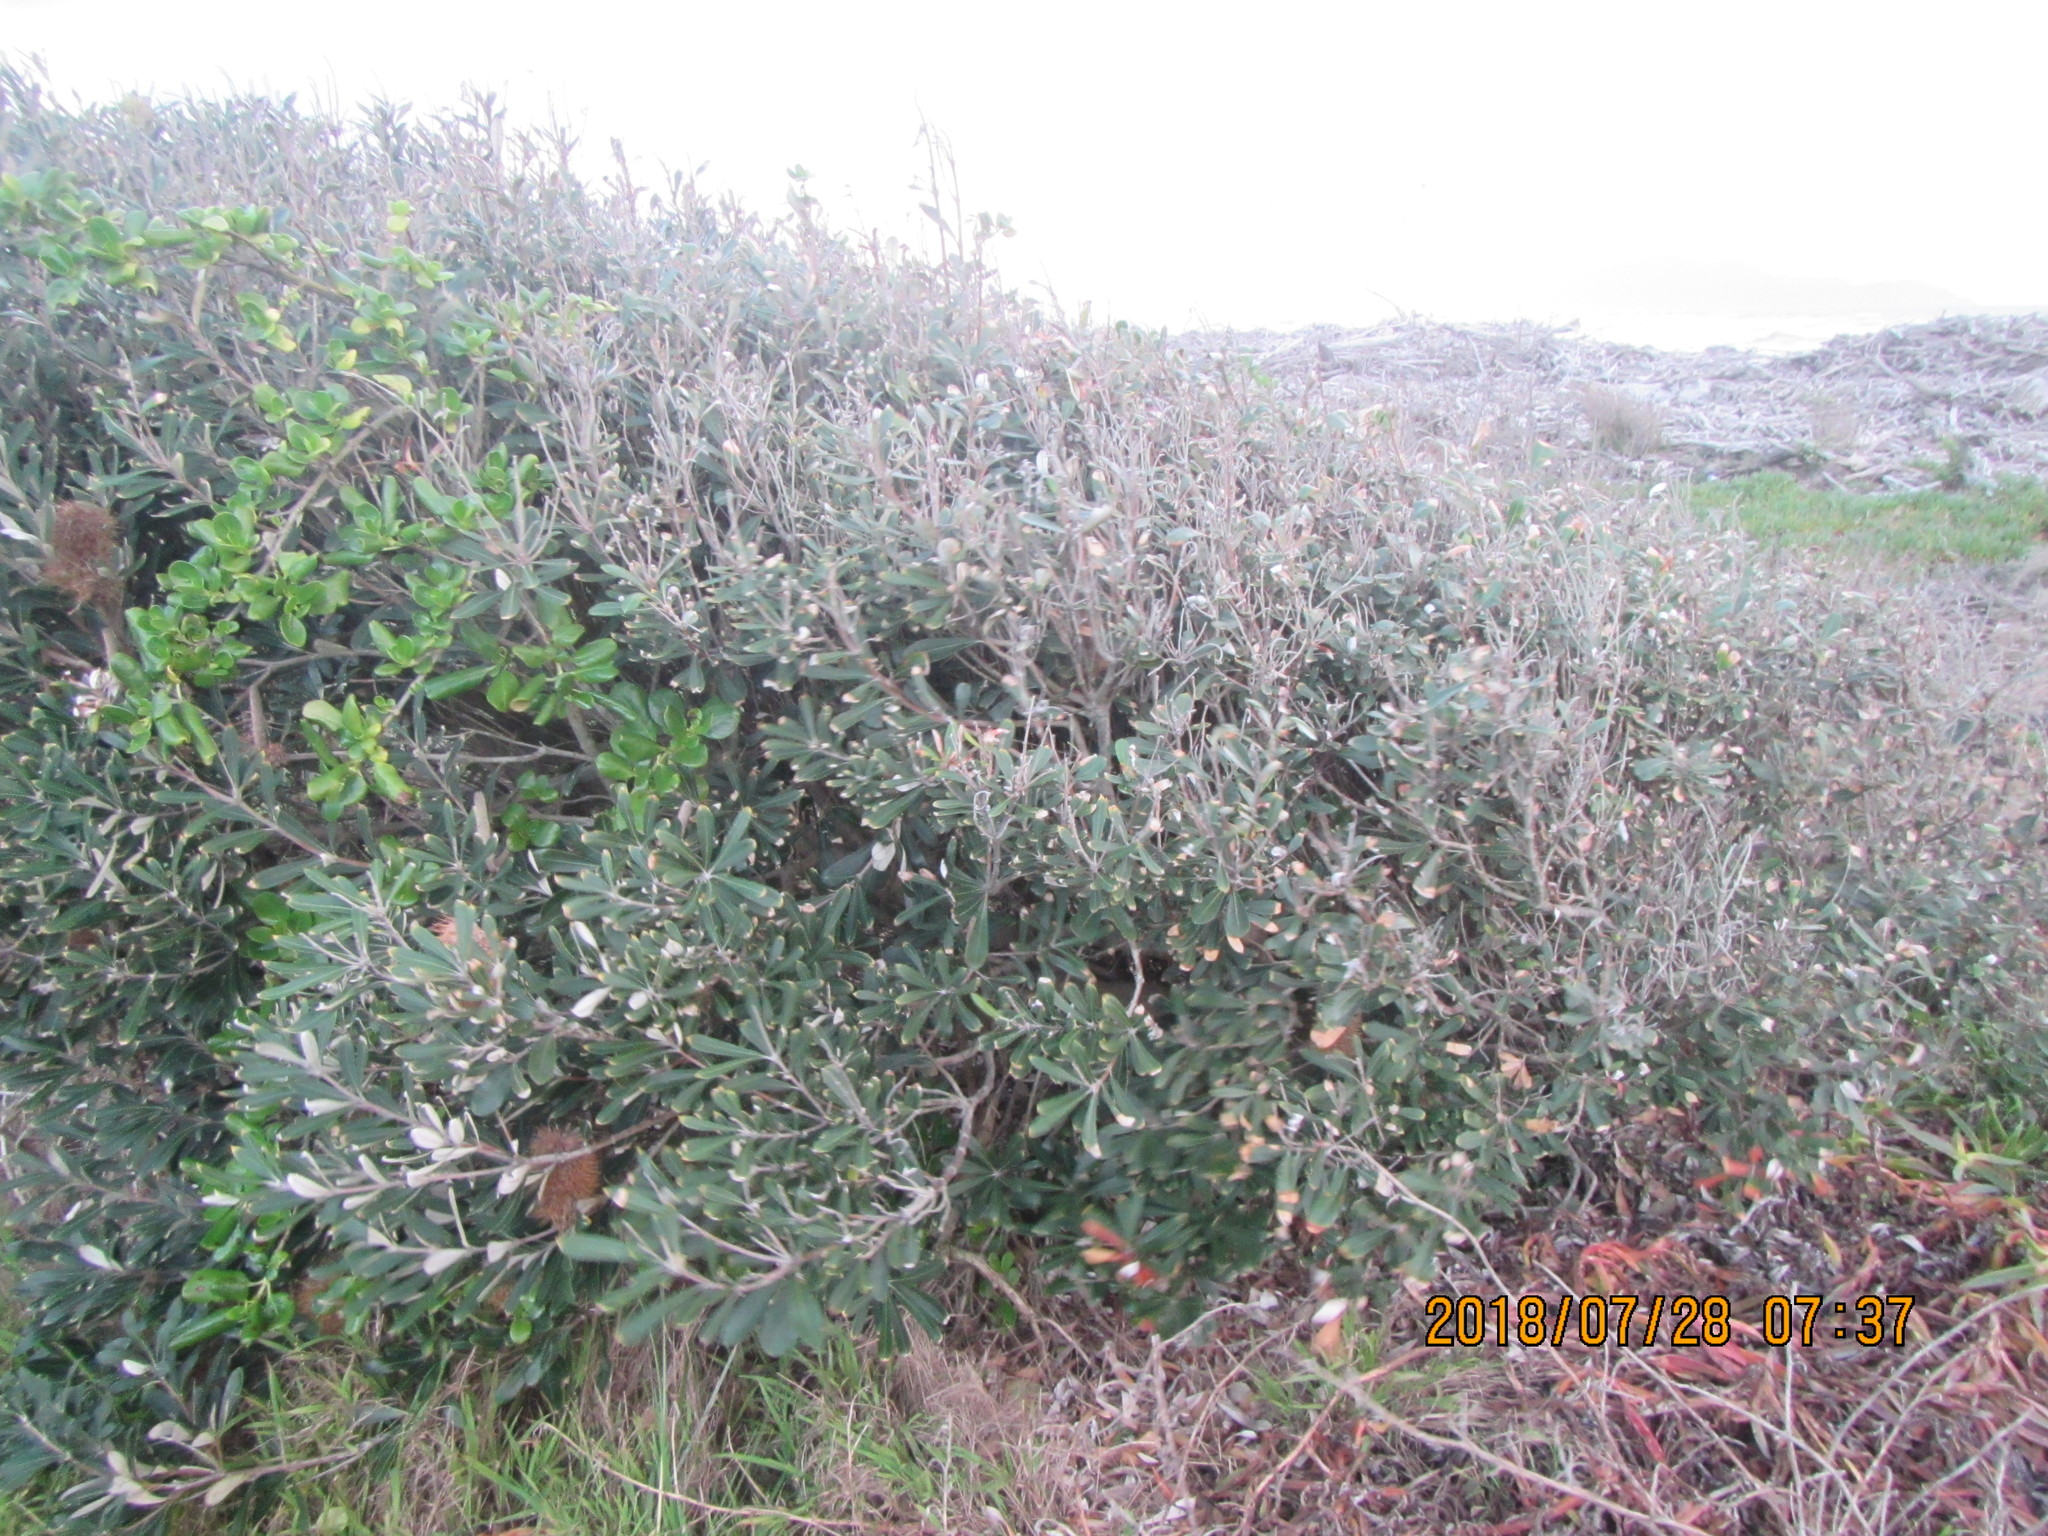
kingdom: Plantae
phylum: Tracheophyta
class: Magnoliopsida
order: Proteales
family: Proteaceae
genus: Banksia
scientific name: Banksia integrifolia
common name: White-honeysuckle
